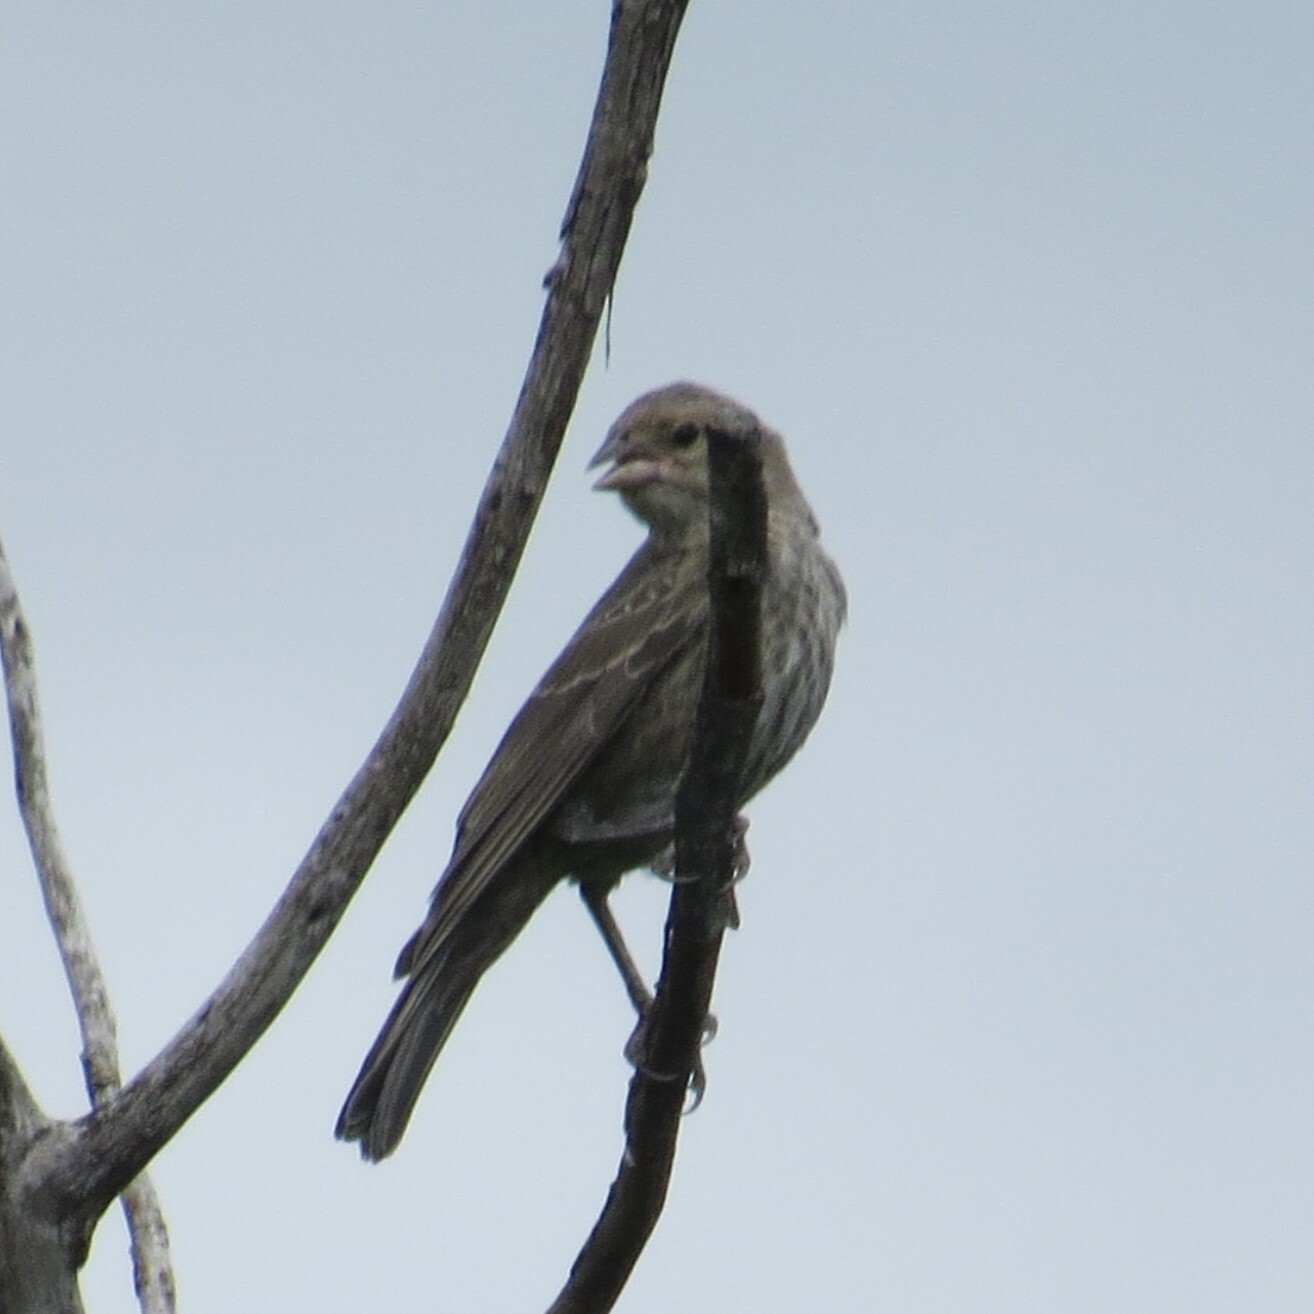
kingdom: Animalia
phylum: Chordata
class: Aves
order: Passeriformes
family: Icteridae
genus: Molothrus
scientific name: Molothrus ater
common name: Brown-headed cowbird
